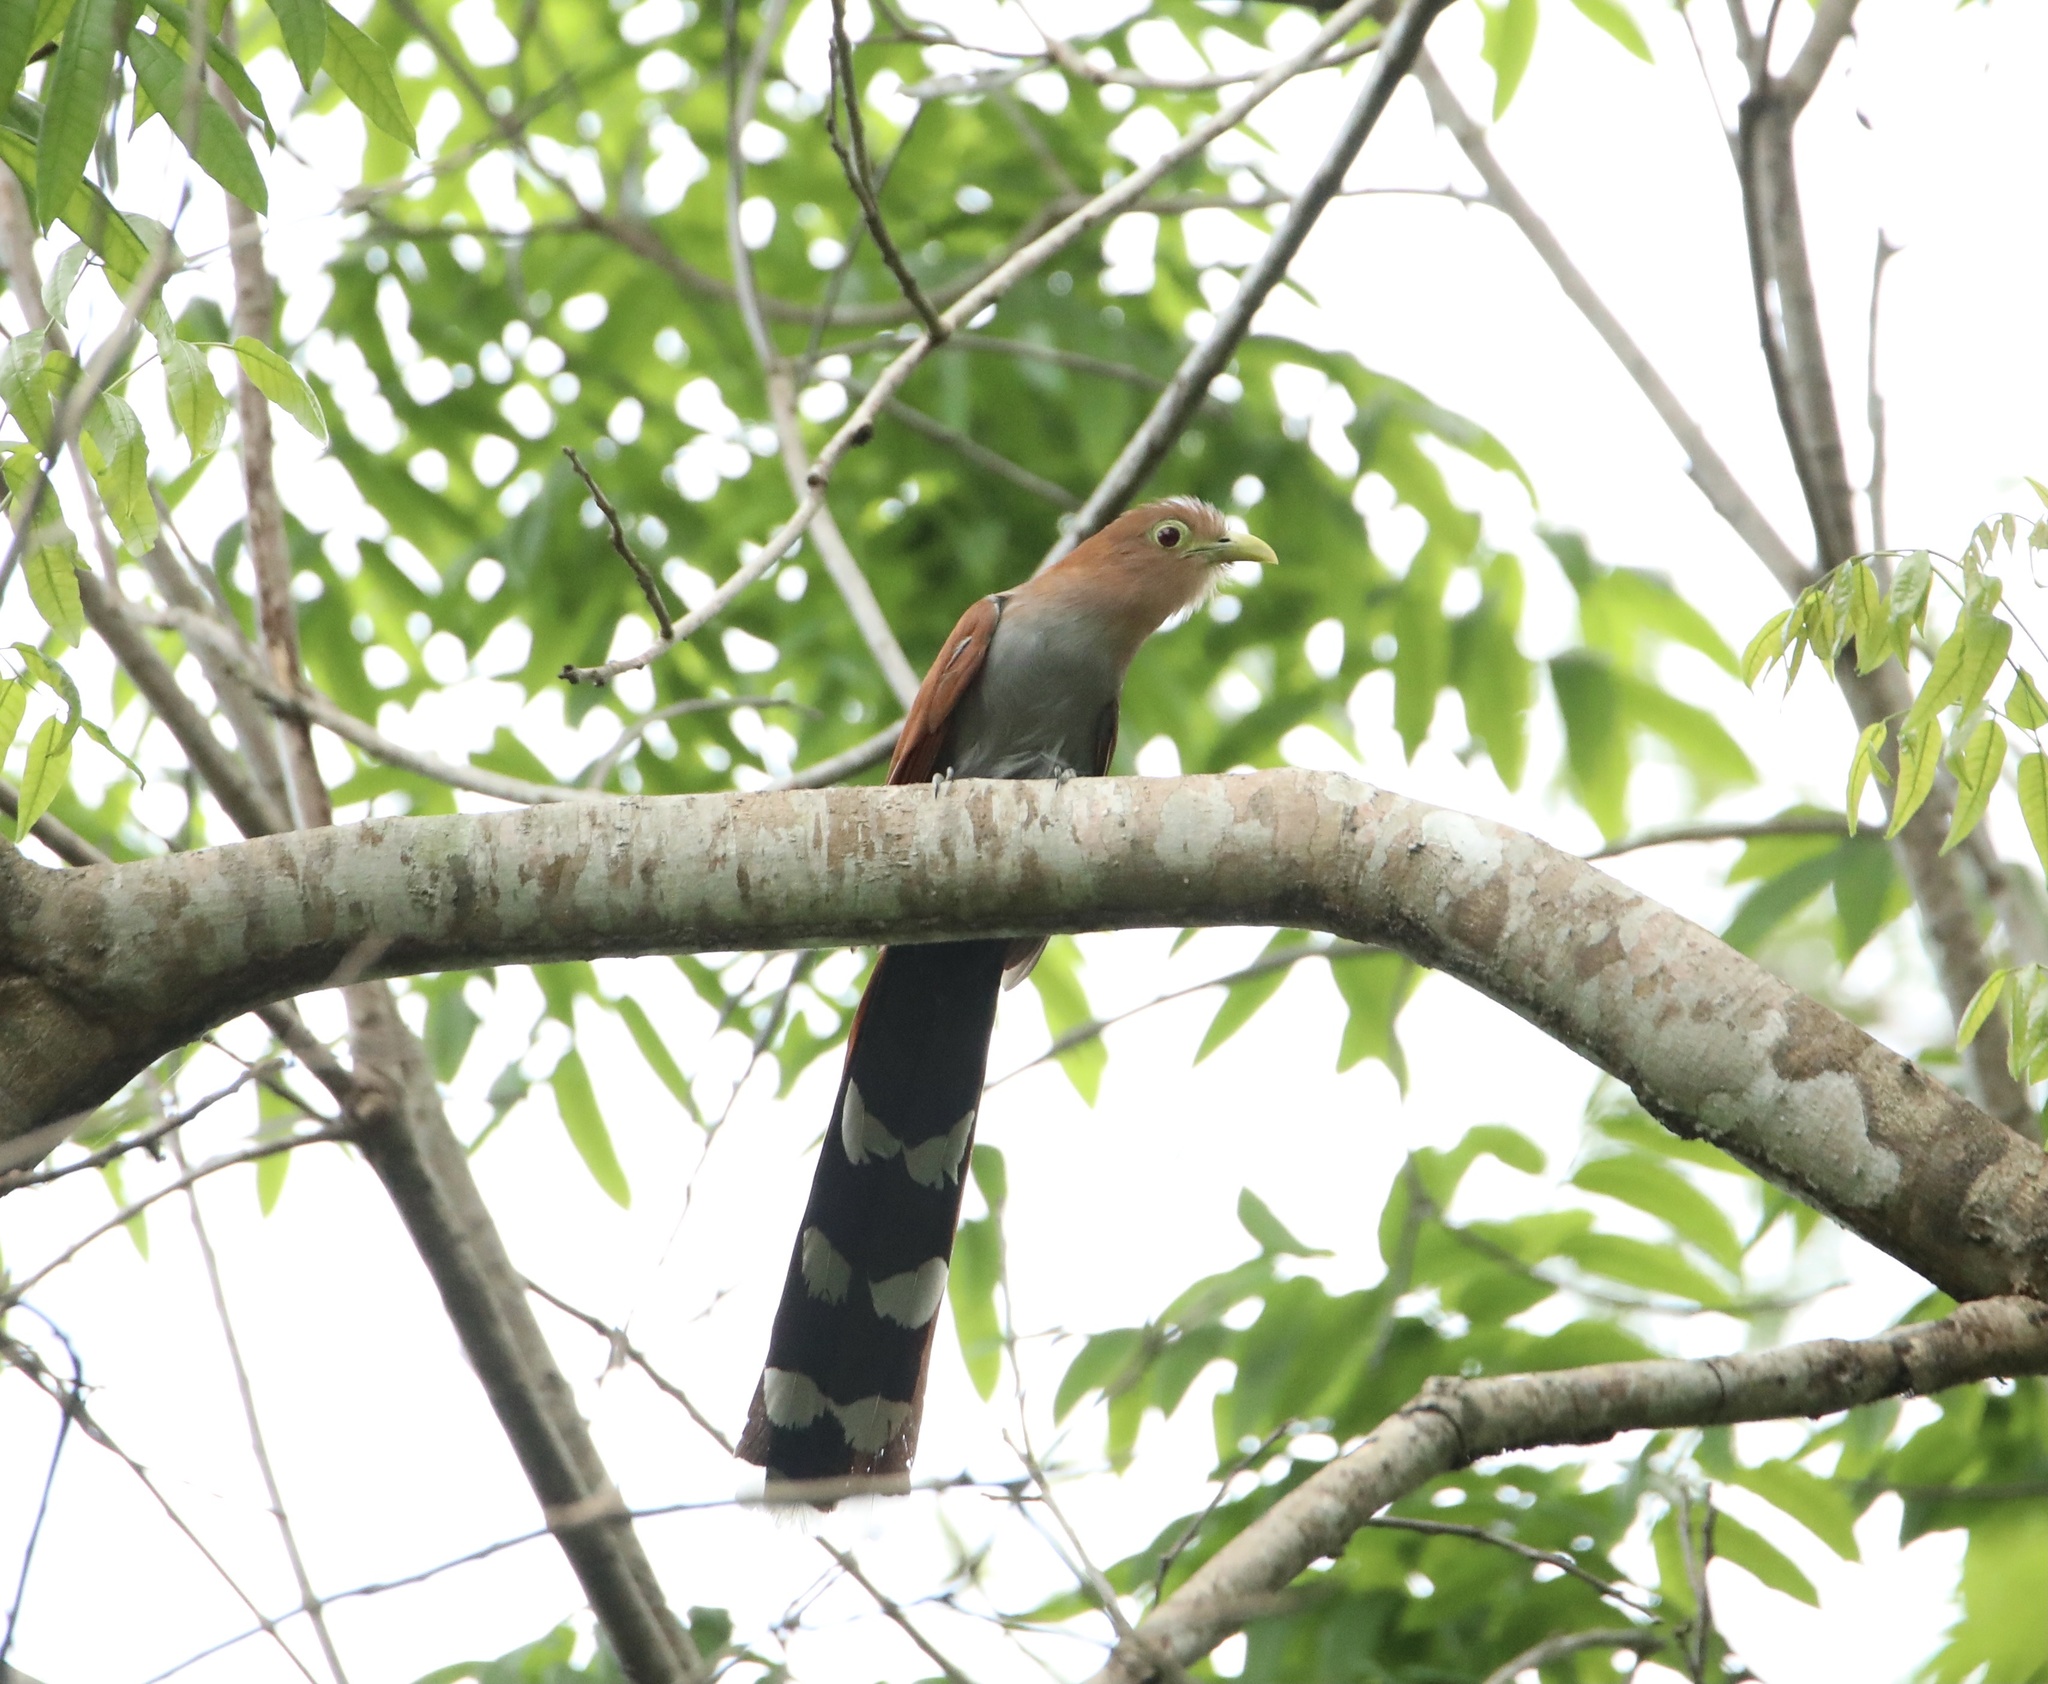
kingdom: Animalia
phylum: Chordata
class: Aves
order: Cuculiformes
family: Cuculidae
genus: Piaya
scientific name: Piaya cayana
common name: Squirrel cuckoo
